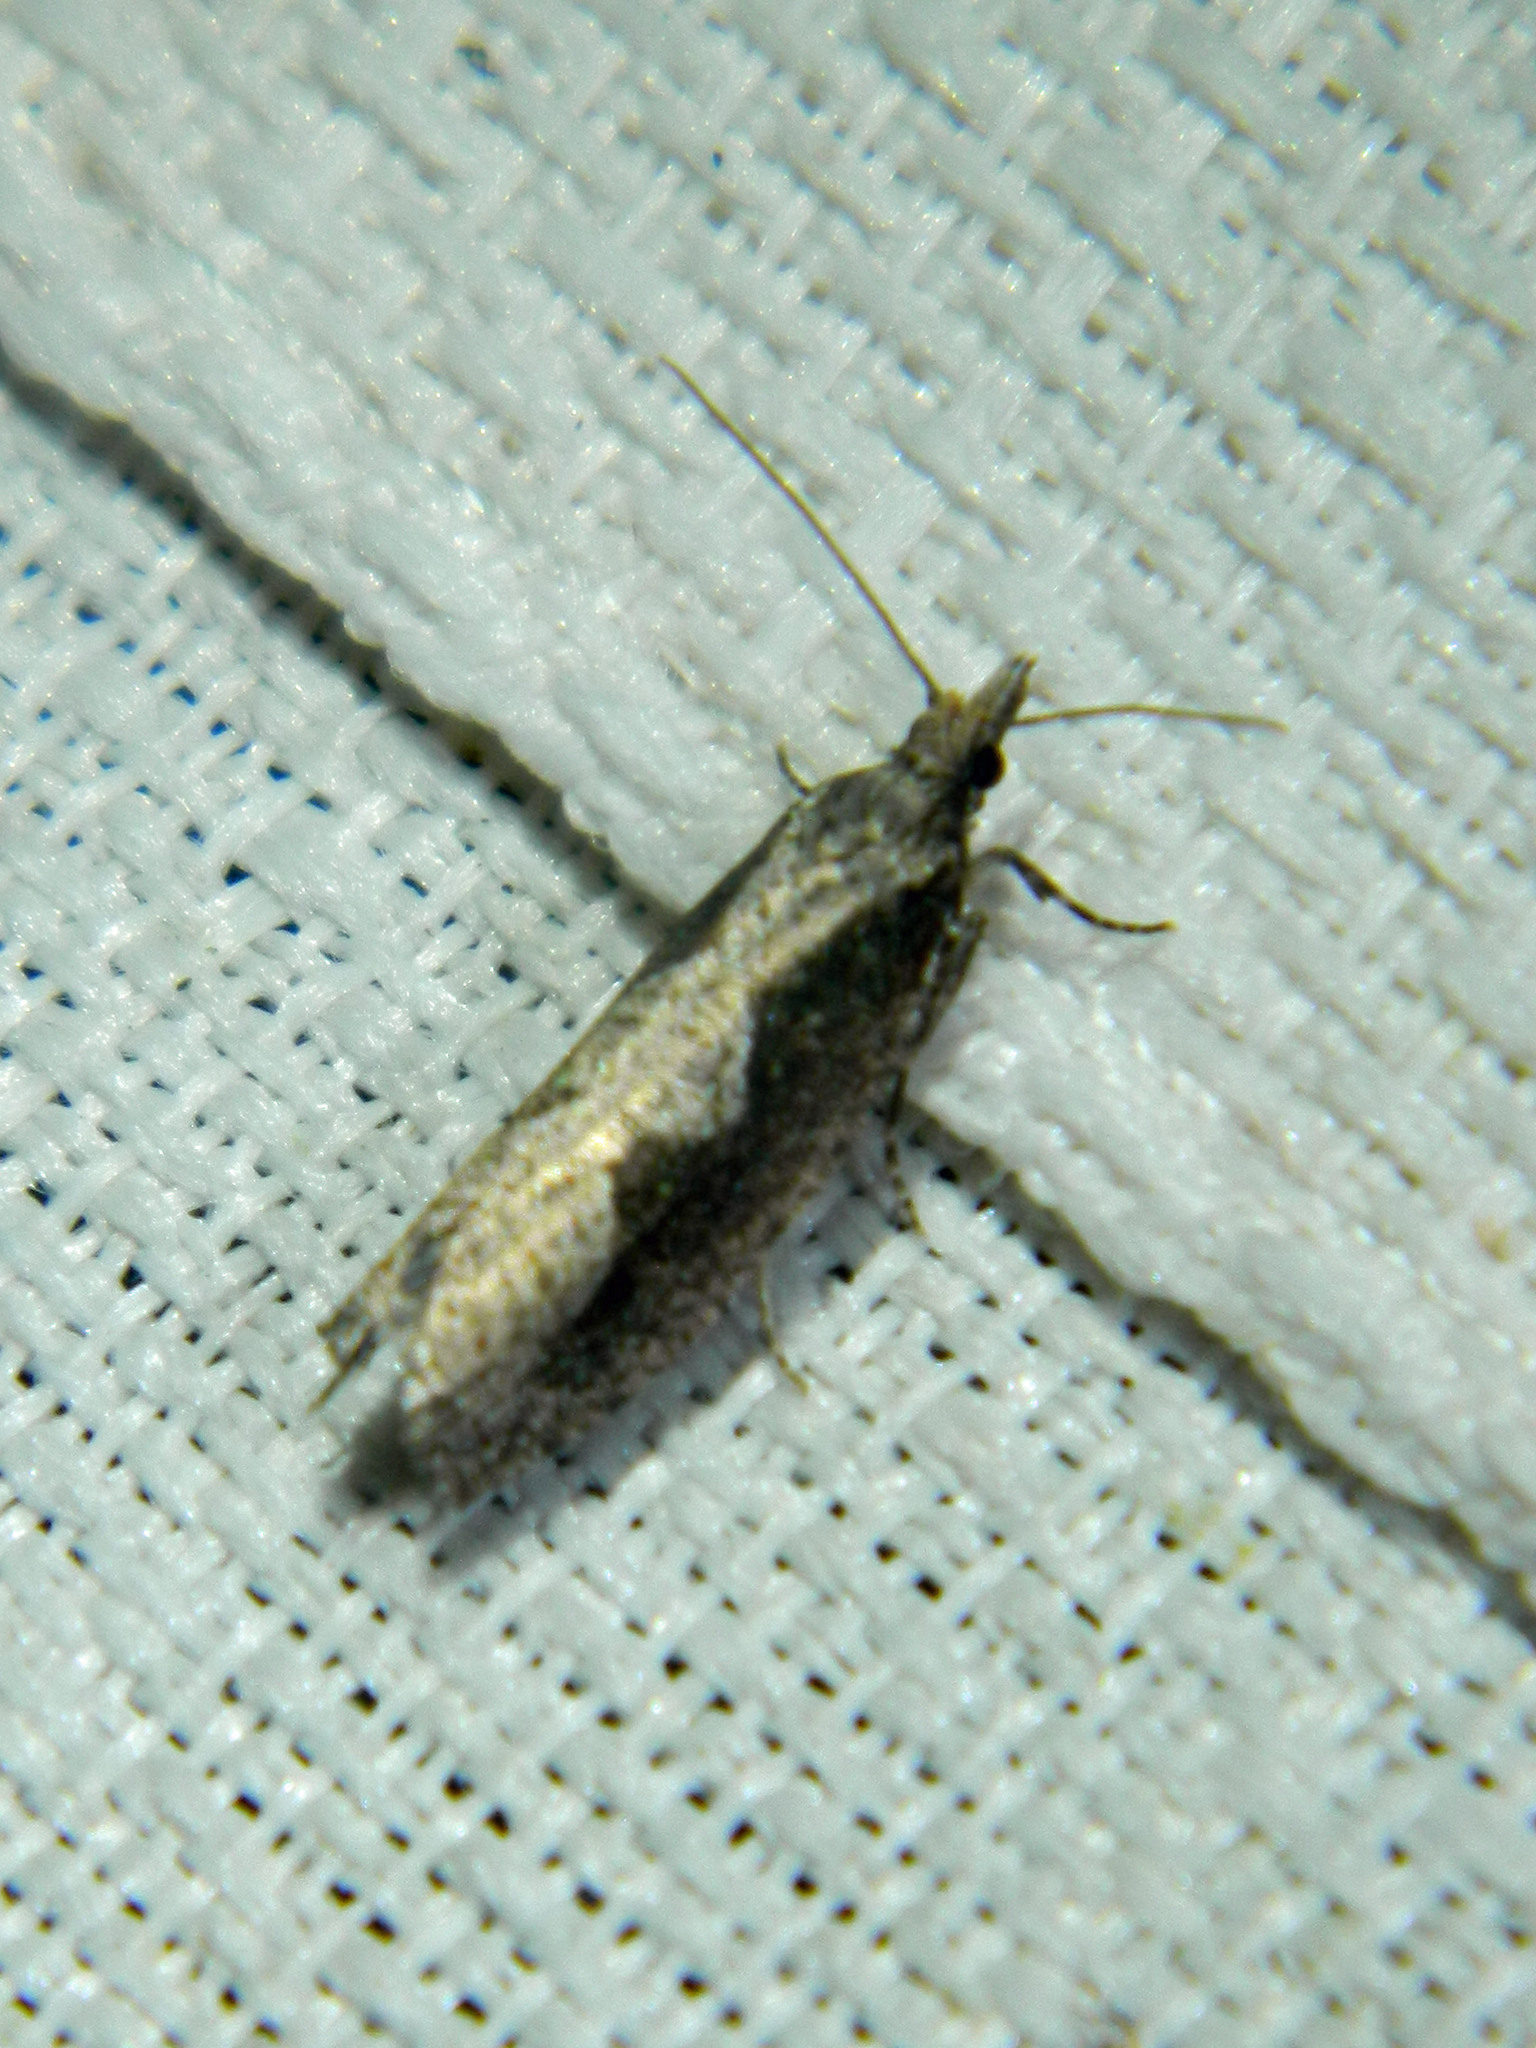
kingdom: Animalia
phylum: Arthropoda
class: Insecta
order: Lepidoptera
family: Tortricidae
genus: Epinotia
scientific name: Epinotia lindana
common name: Diamondback epinotia moth
